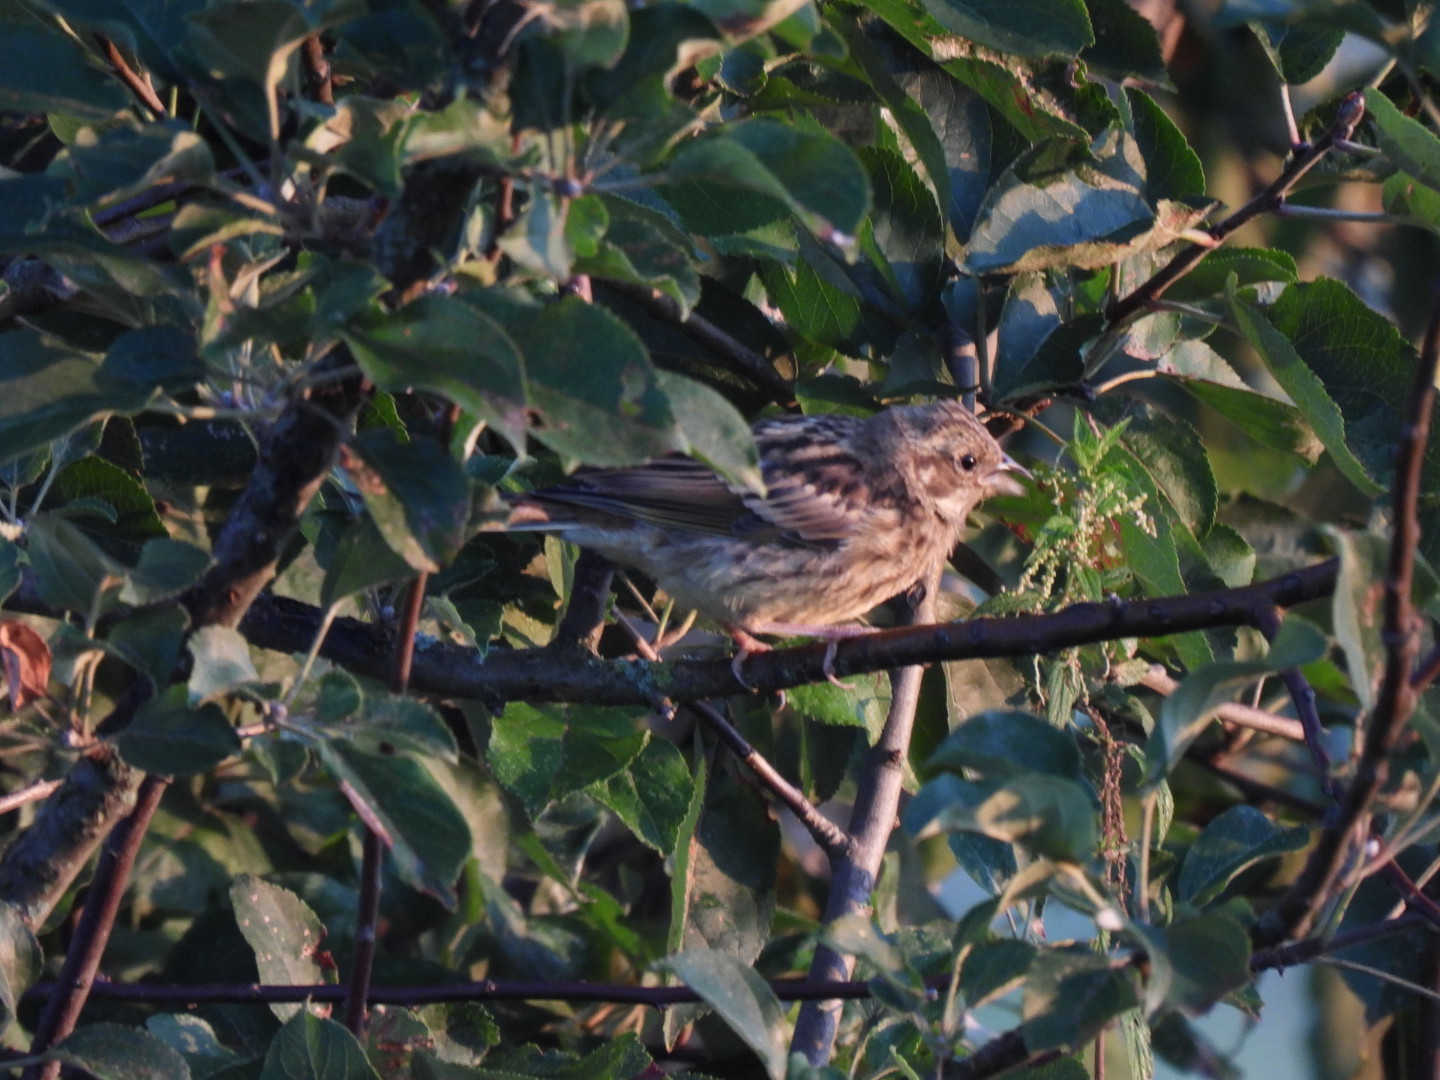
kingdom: Animalia
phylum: Chordata
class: Aves
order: Passeriformes
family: Emberizidae
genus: Emberiza
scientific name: Emberiza citrinella
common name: Yellowhammer
